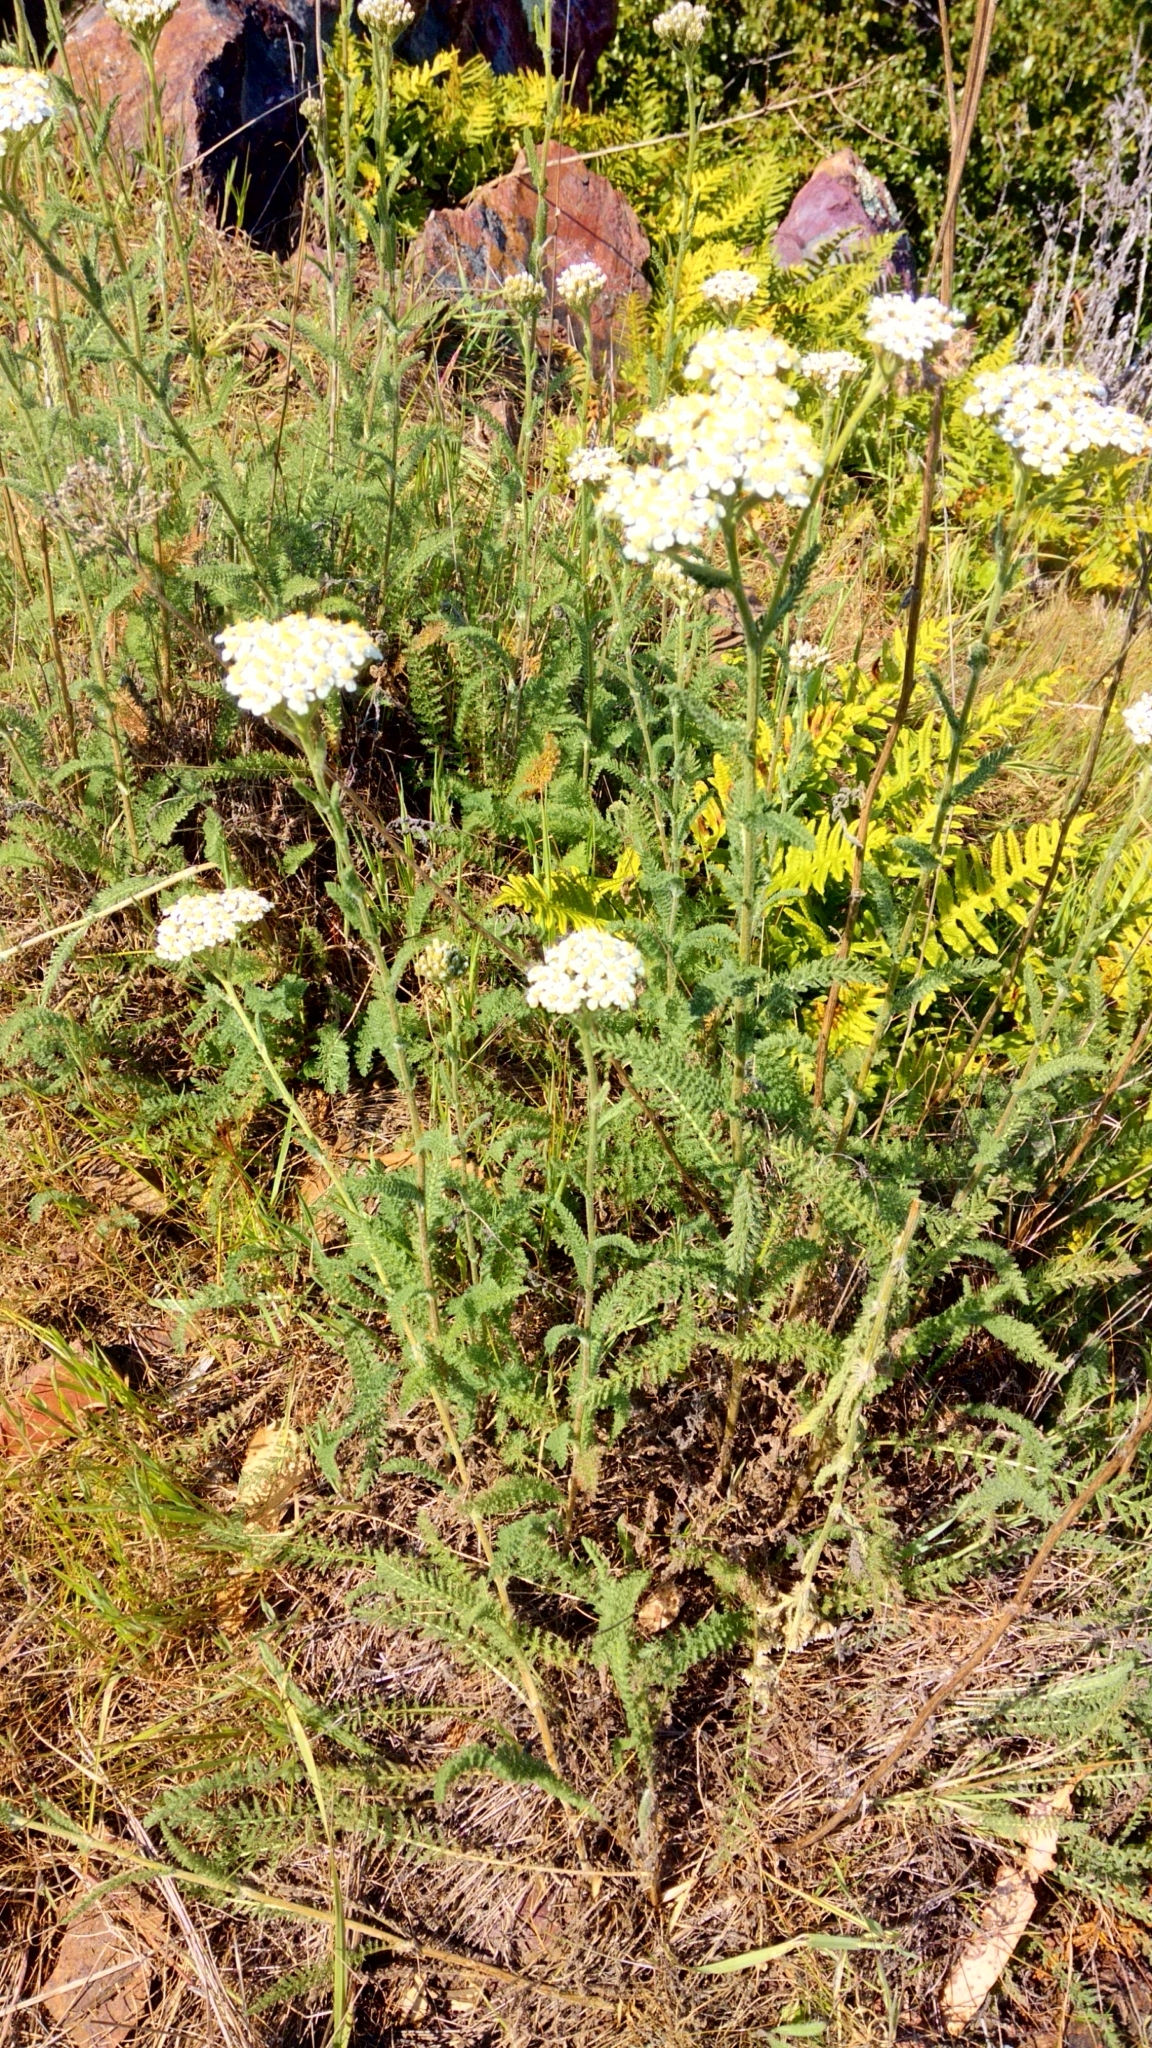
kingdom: Plantae
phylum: Tracheophyta
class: Magnoliopsida
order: Asterales
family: Asteraceae
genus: Achillea
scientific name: Achillea millefolium
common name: Yarrow
